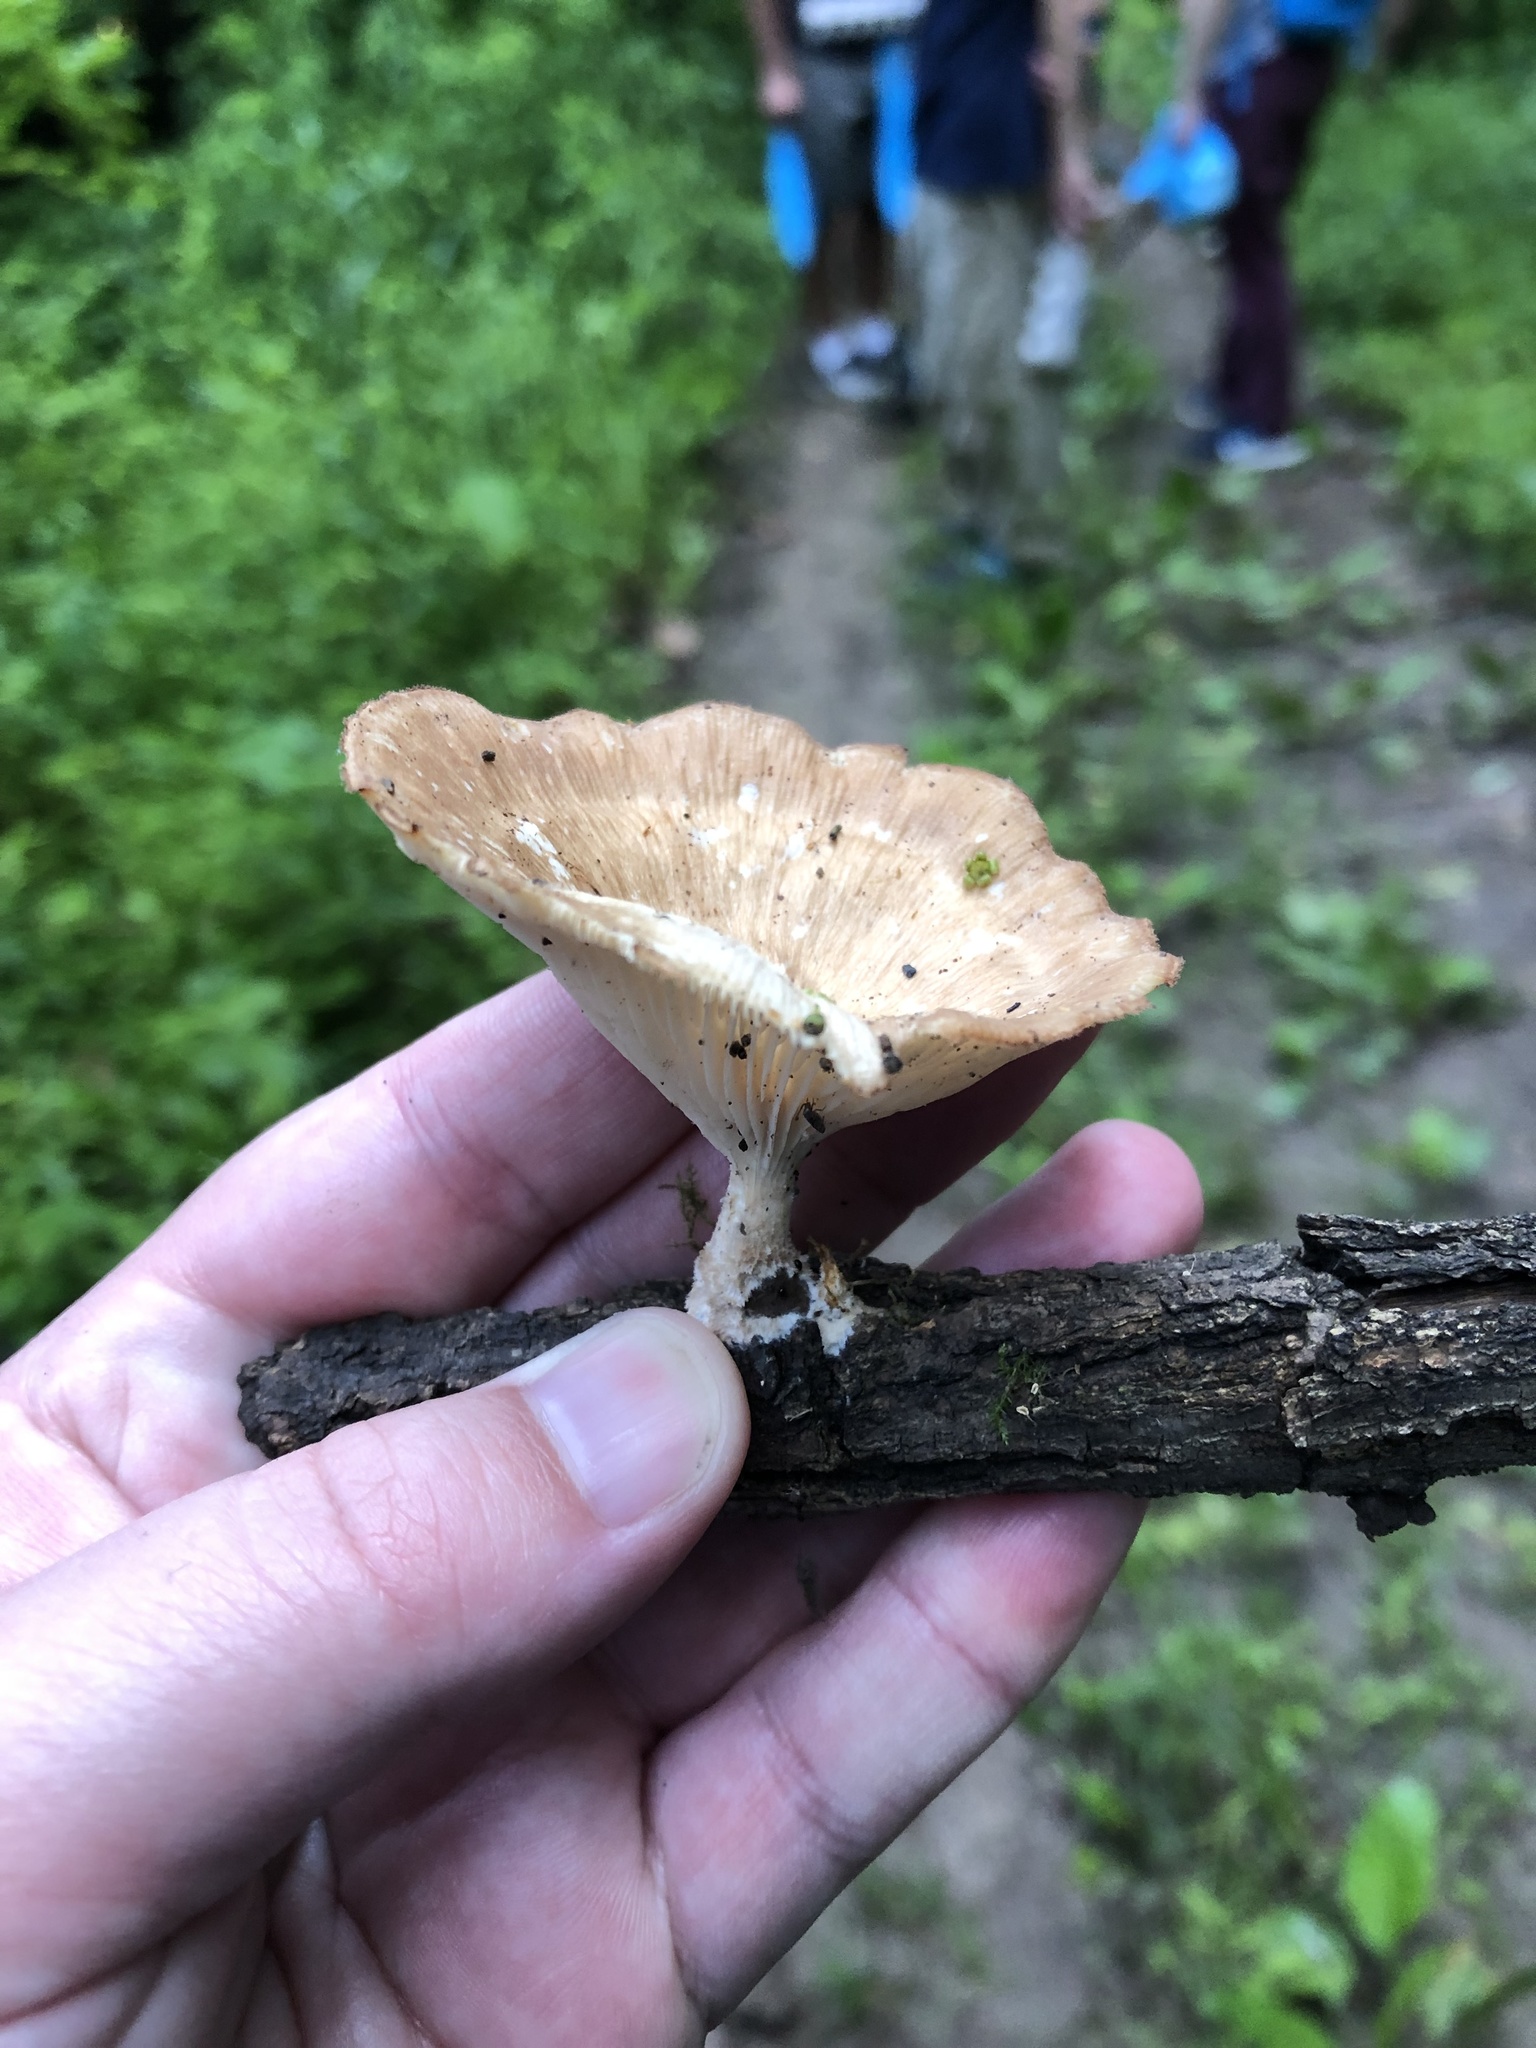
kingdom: Fungi
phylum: Basidiomycota
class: Agaricomycetes
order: Polyporales
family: Panaceae
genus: Panus
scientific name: Panus conchatus
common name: Lilac oysterling
